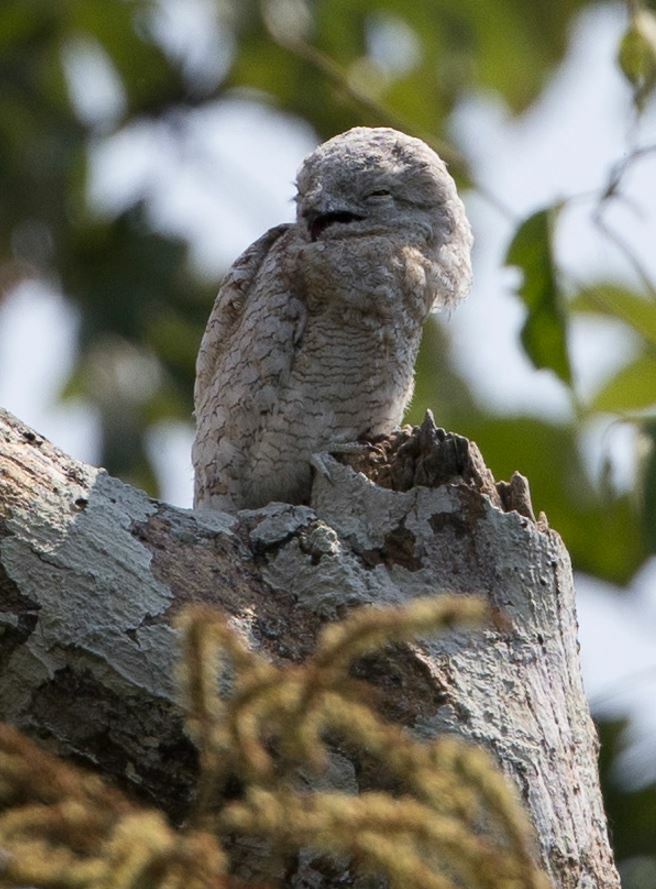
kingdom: Animalia
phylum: Chordata
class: Aves
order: Nyctibiiformes
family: Nyctibiidae
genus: Nyctibius
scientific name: Nyctibius grandis
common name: Great potoo
